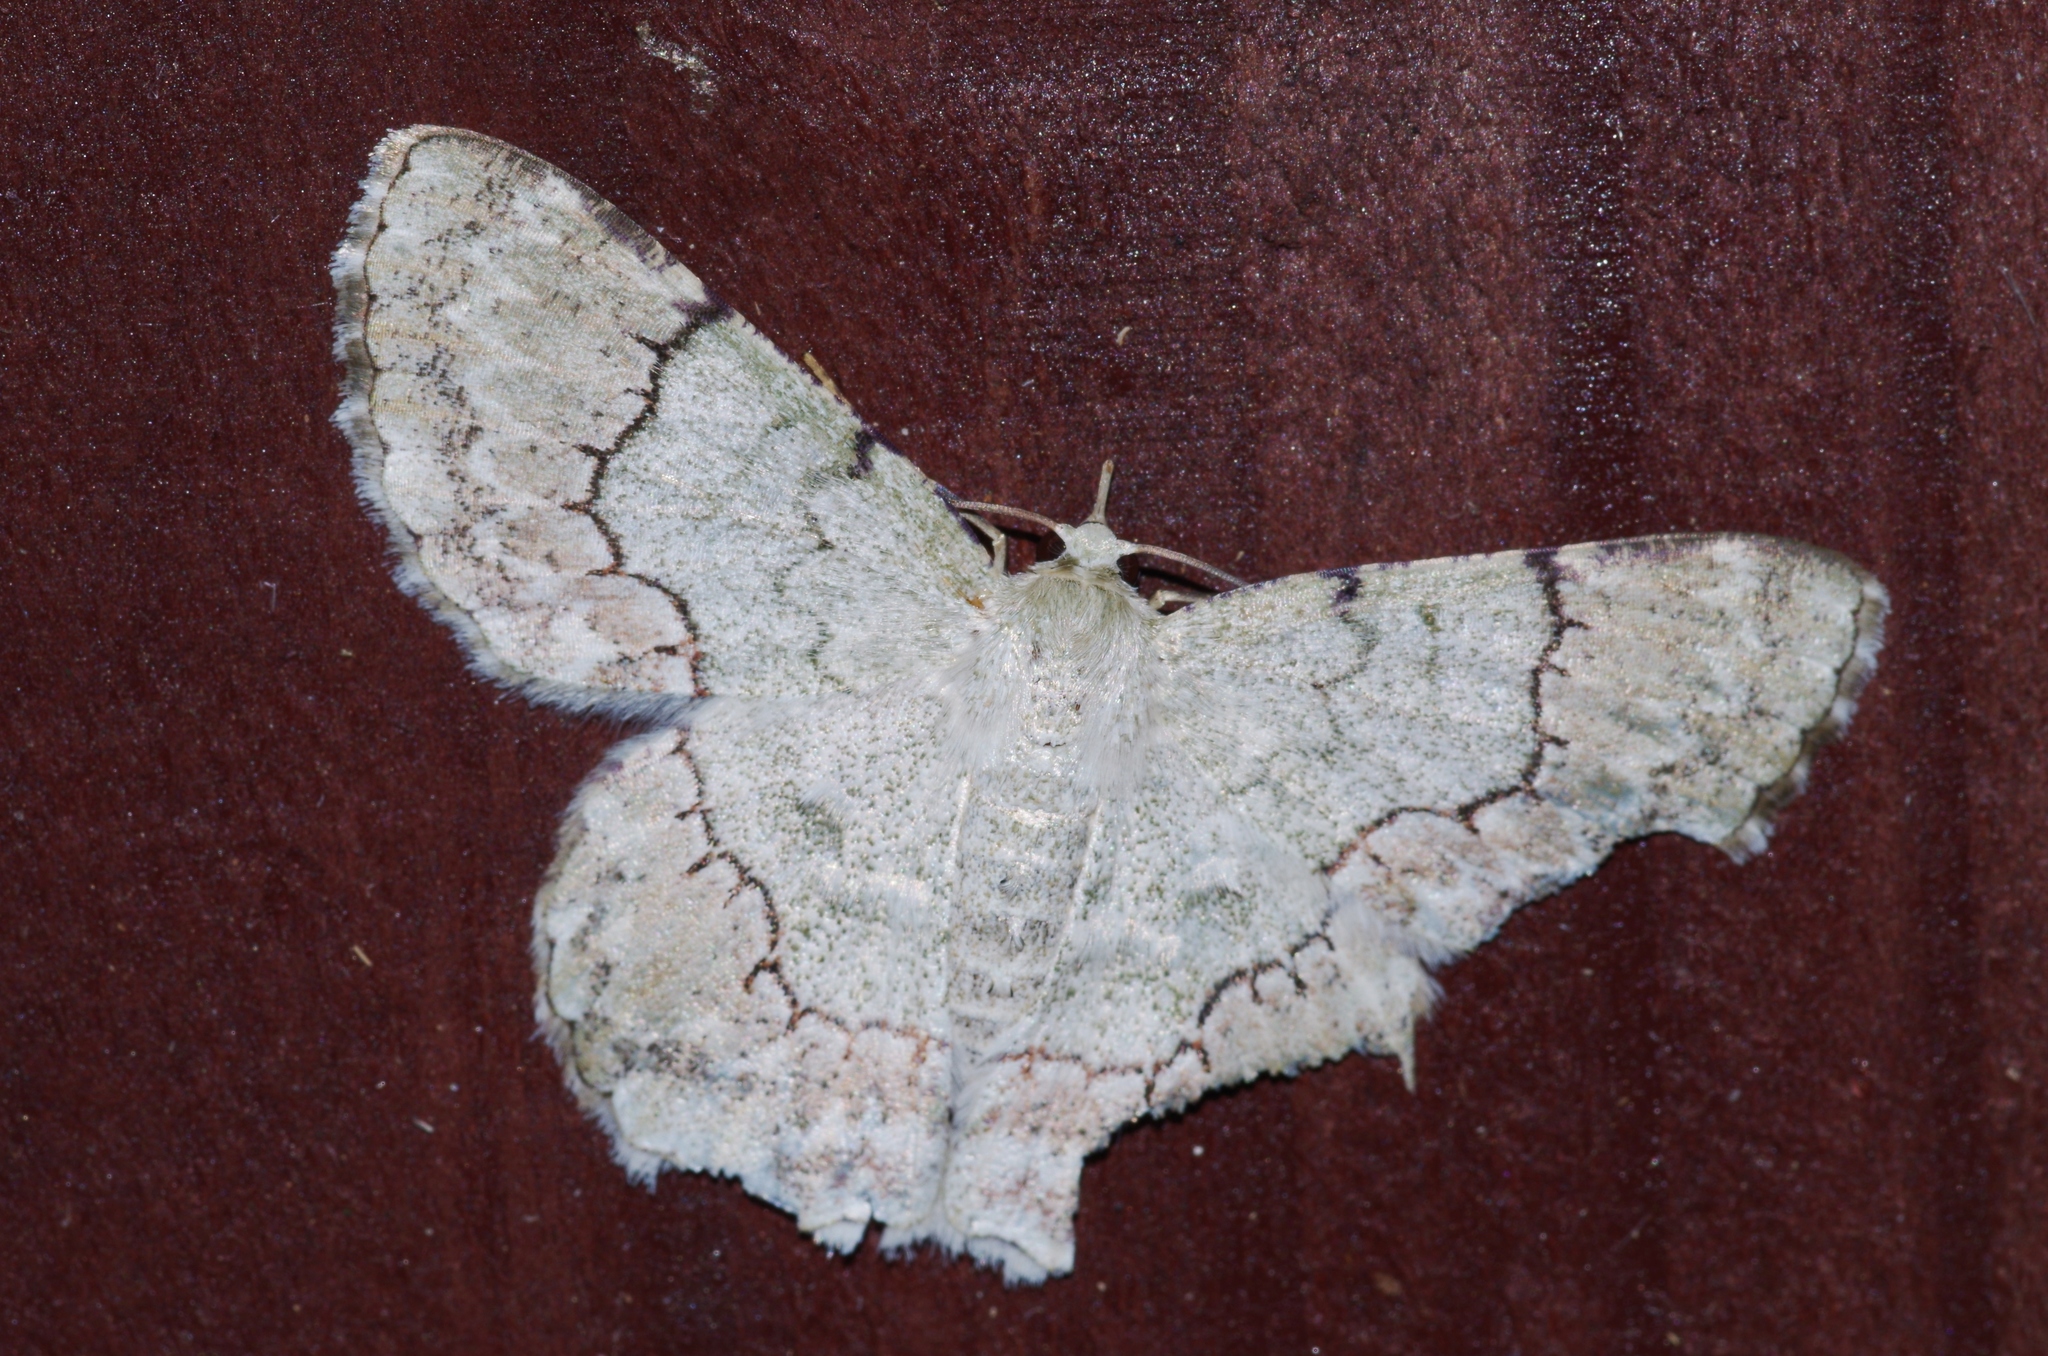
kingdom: Animalia
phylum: Arthropoda
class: Insecta
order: Lepidoptera
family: Geometridae
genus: Pingasa
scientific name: Pingasa ruginaria
